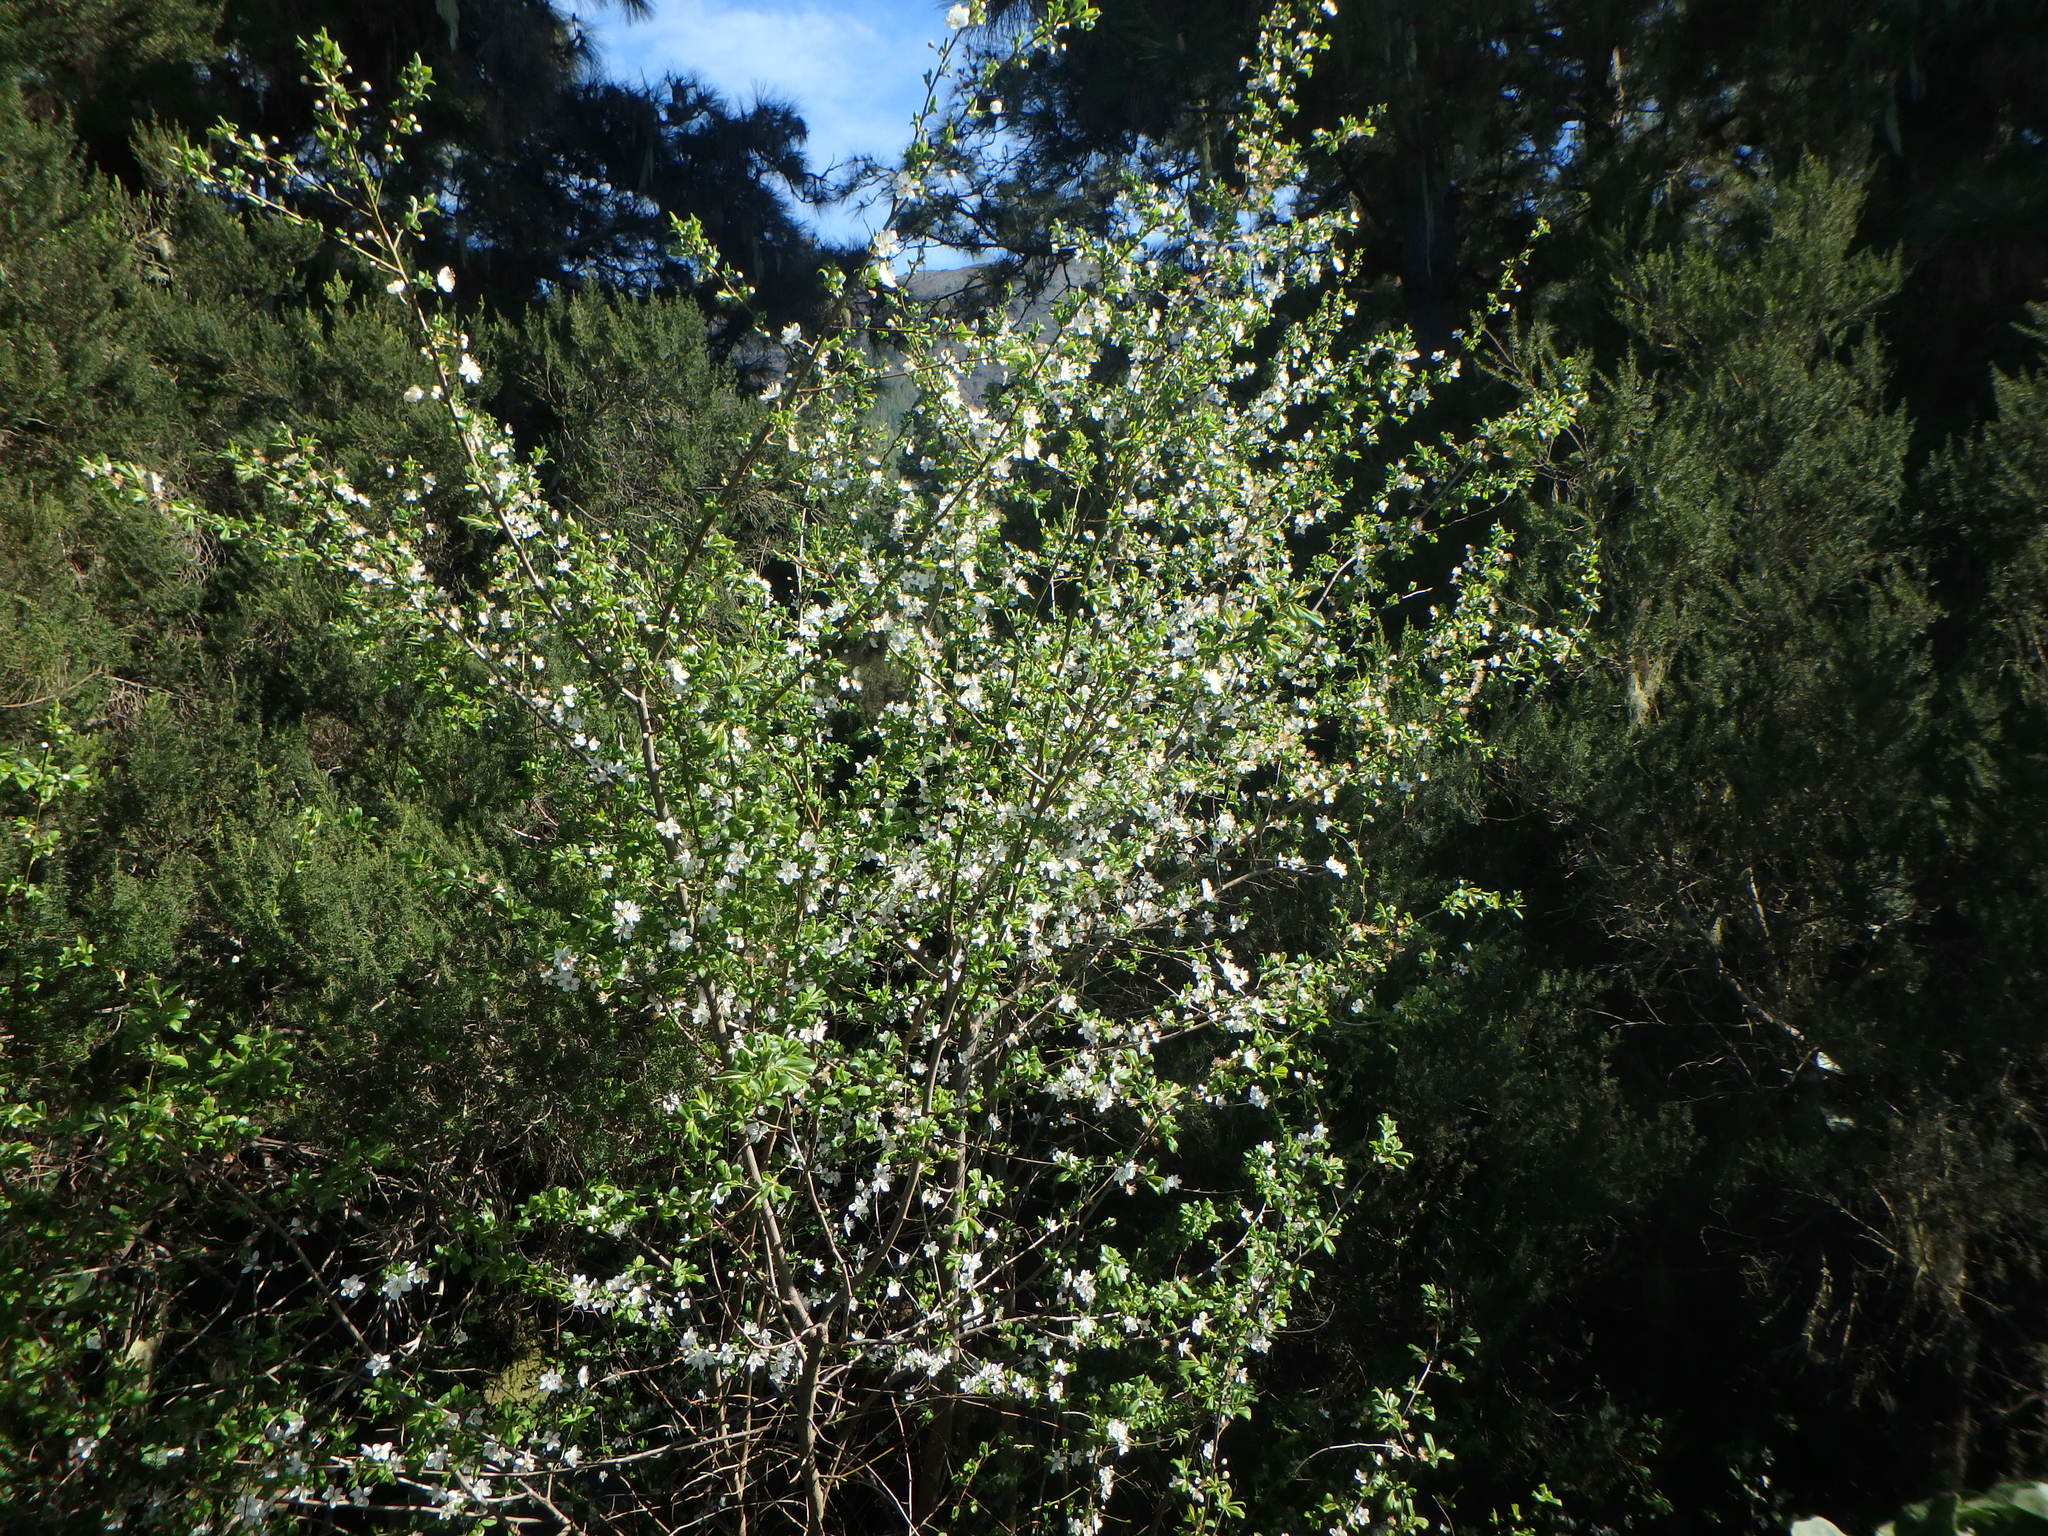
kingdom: Plantae
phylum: Tracheophyta
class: Magnoliopsida
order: Rosales
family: Rosaceae
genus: Prunus
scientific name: Prunus domestica
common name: Wild plum
